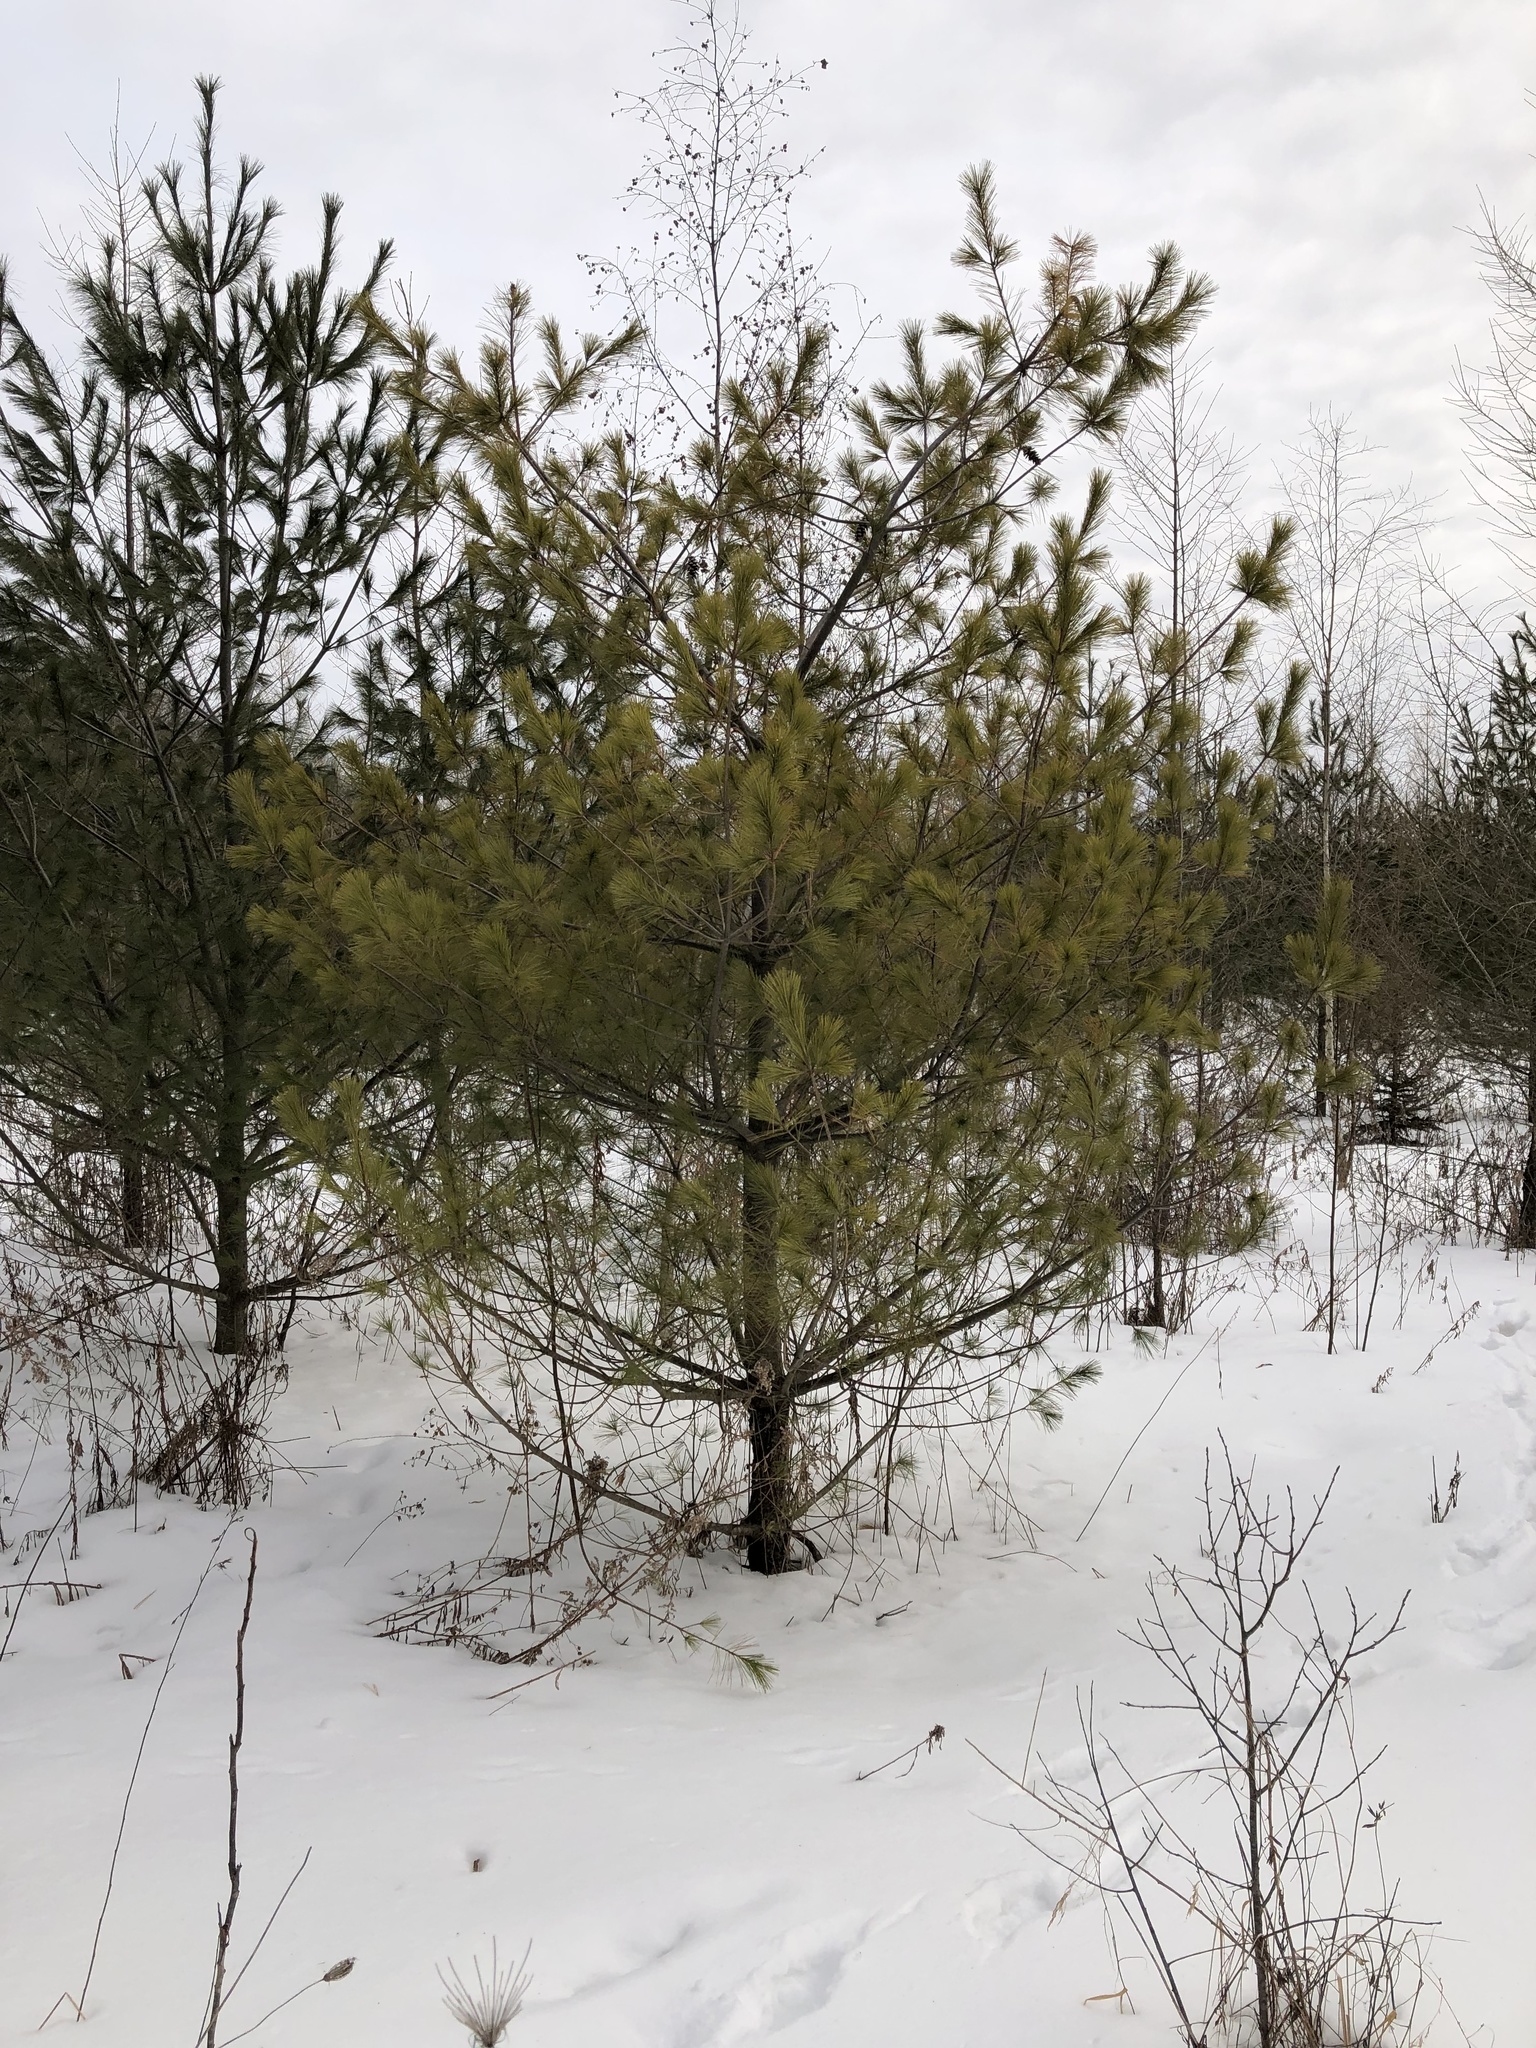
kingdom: Plantae
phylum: Tracheophyta
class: Pinopsida
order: Pinales
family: Pinaceae
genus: Pinus
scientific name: Pinus strobus
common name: Weymouth pine
